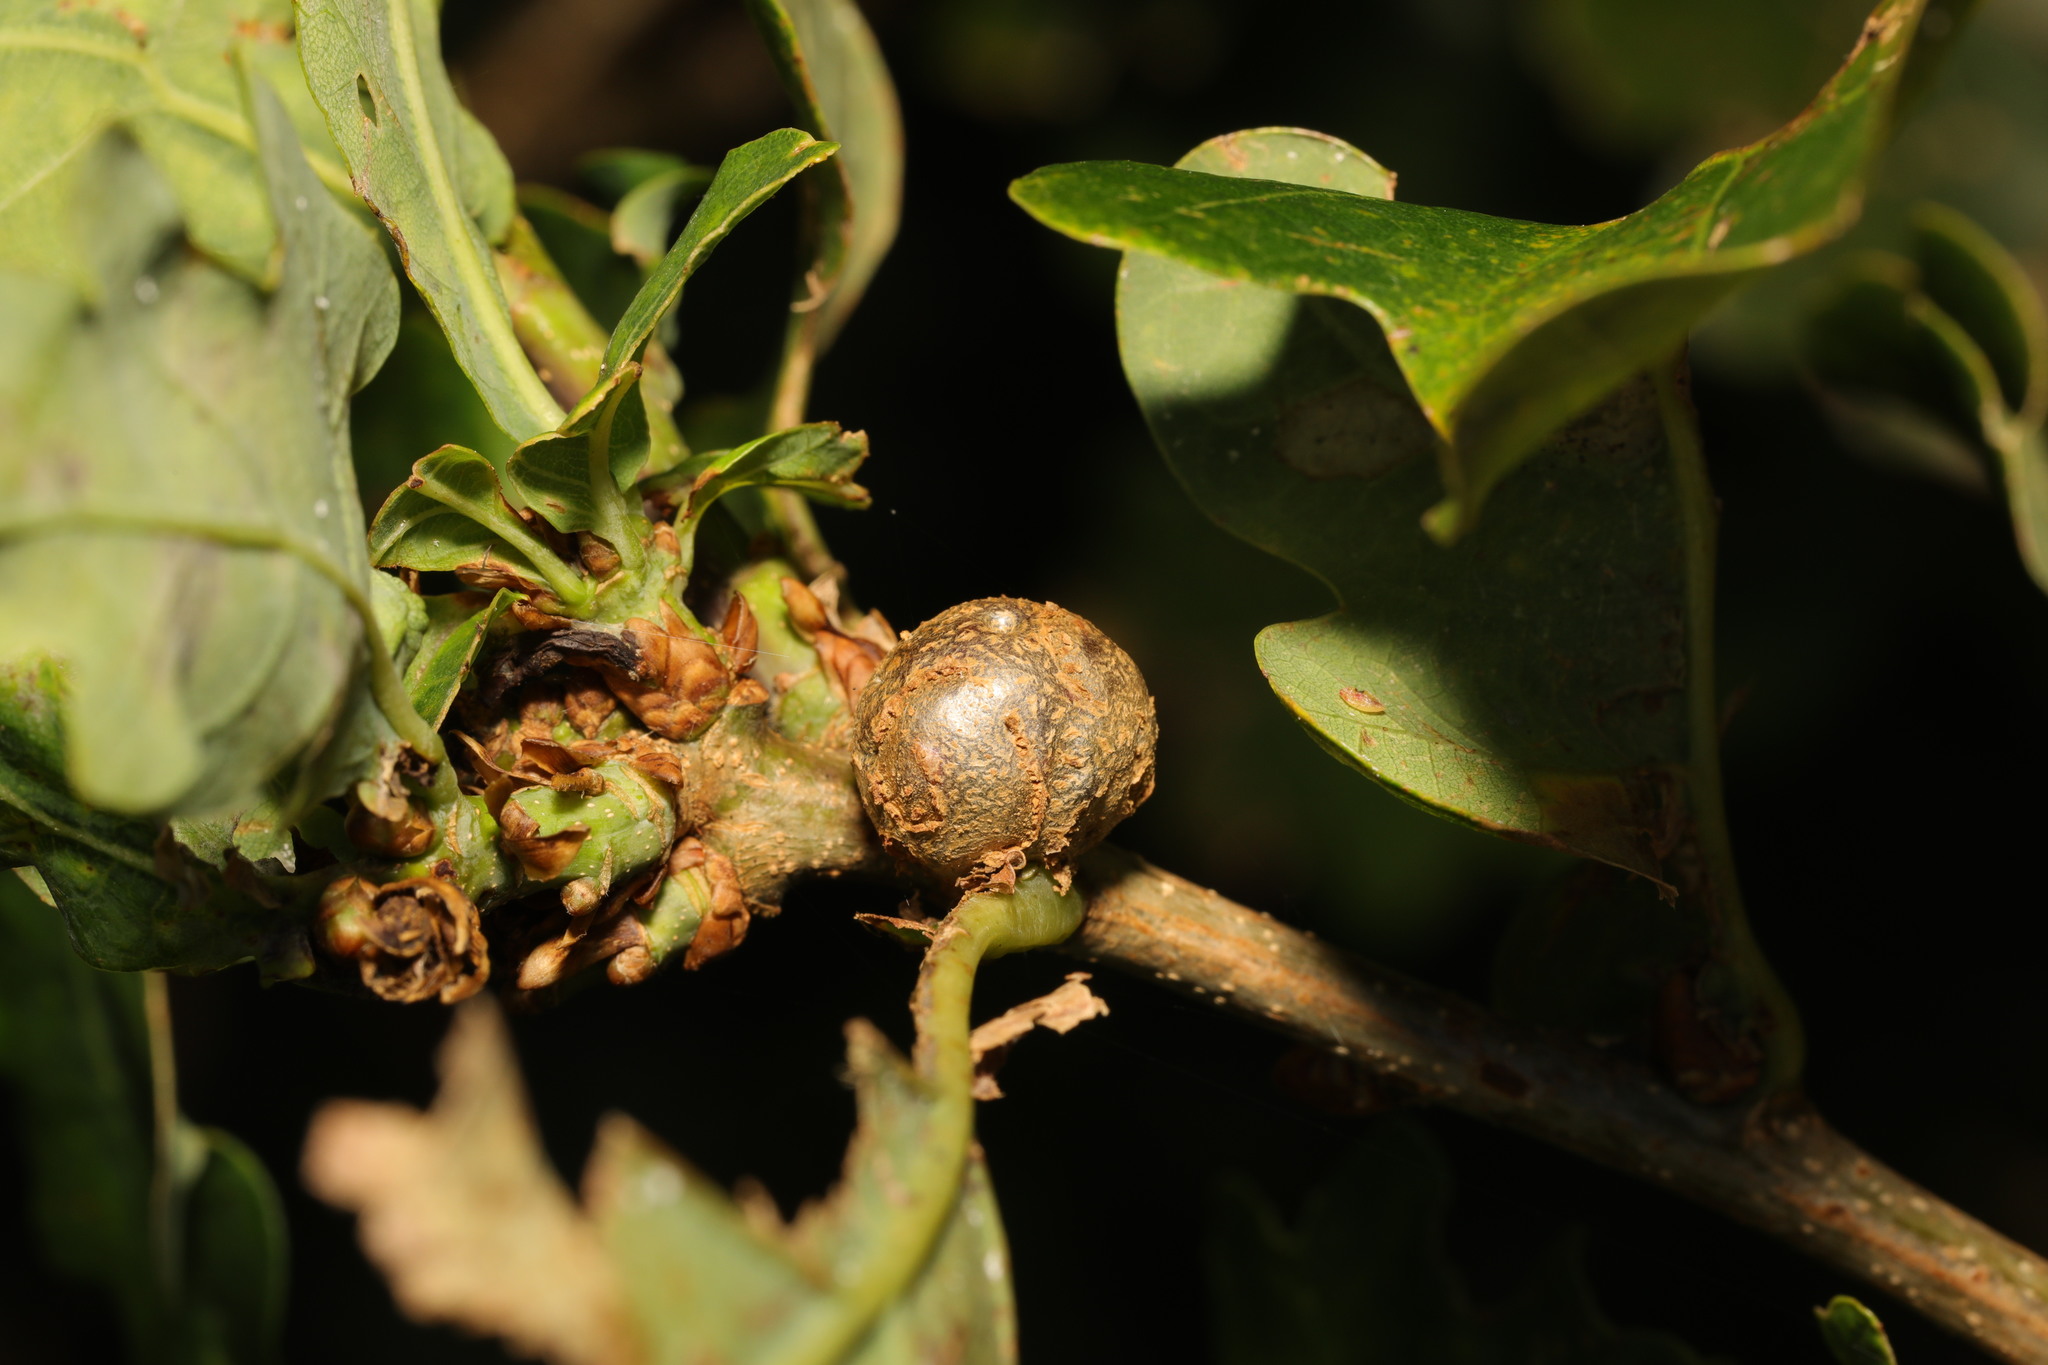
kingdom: Animalia
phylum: Arthropoda
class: Insecta
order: Hymenoptera
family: Cynipidae
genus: Andricus
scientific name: Andricus lignicolus
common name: Cola-nut gall
